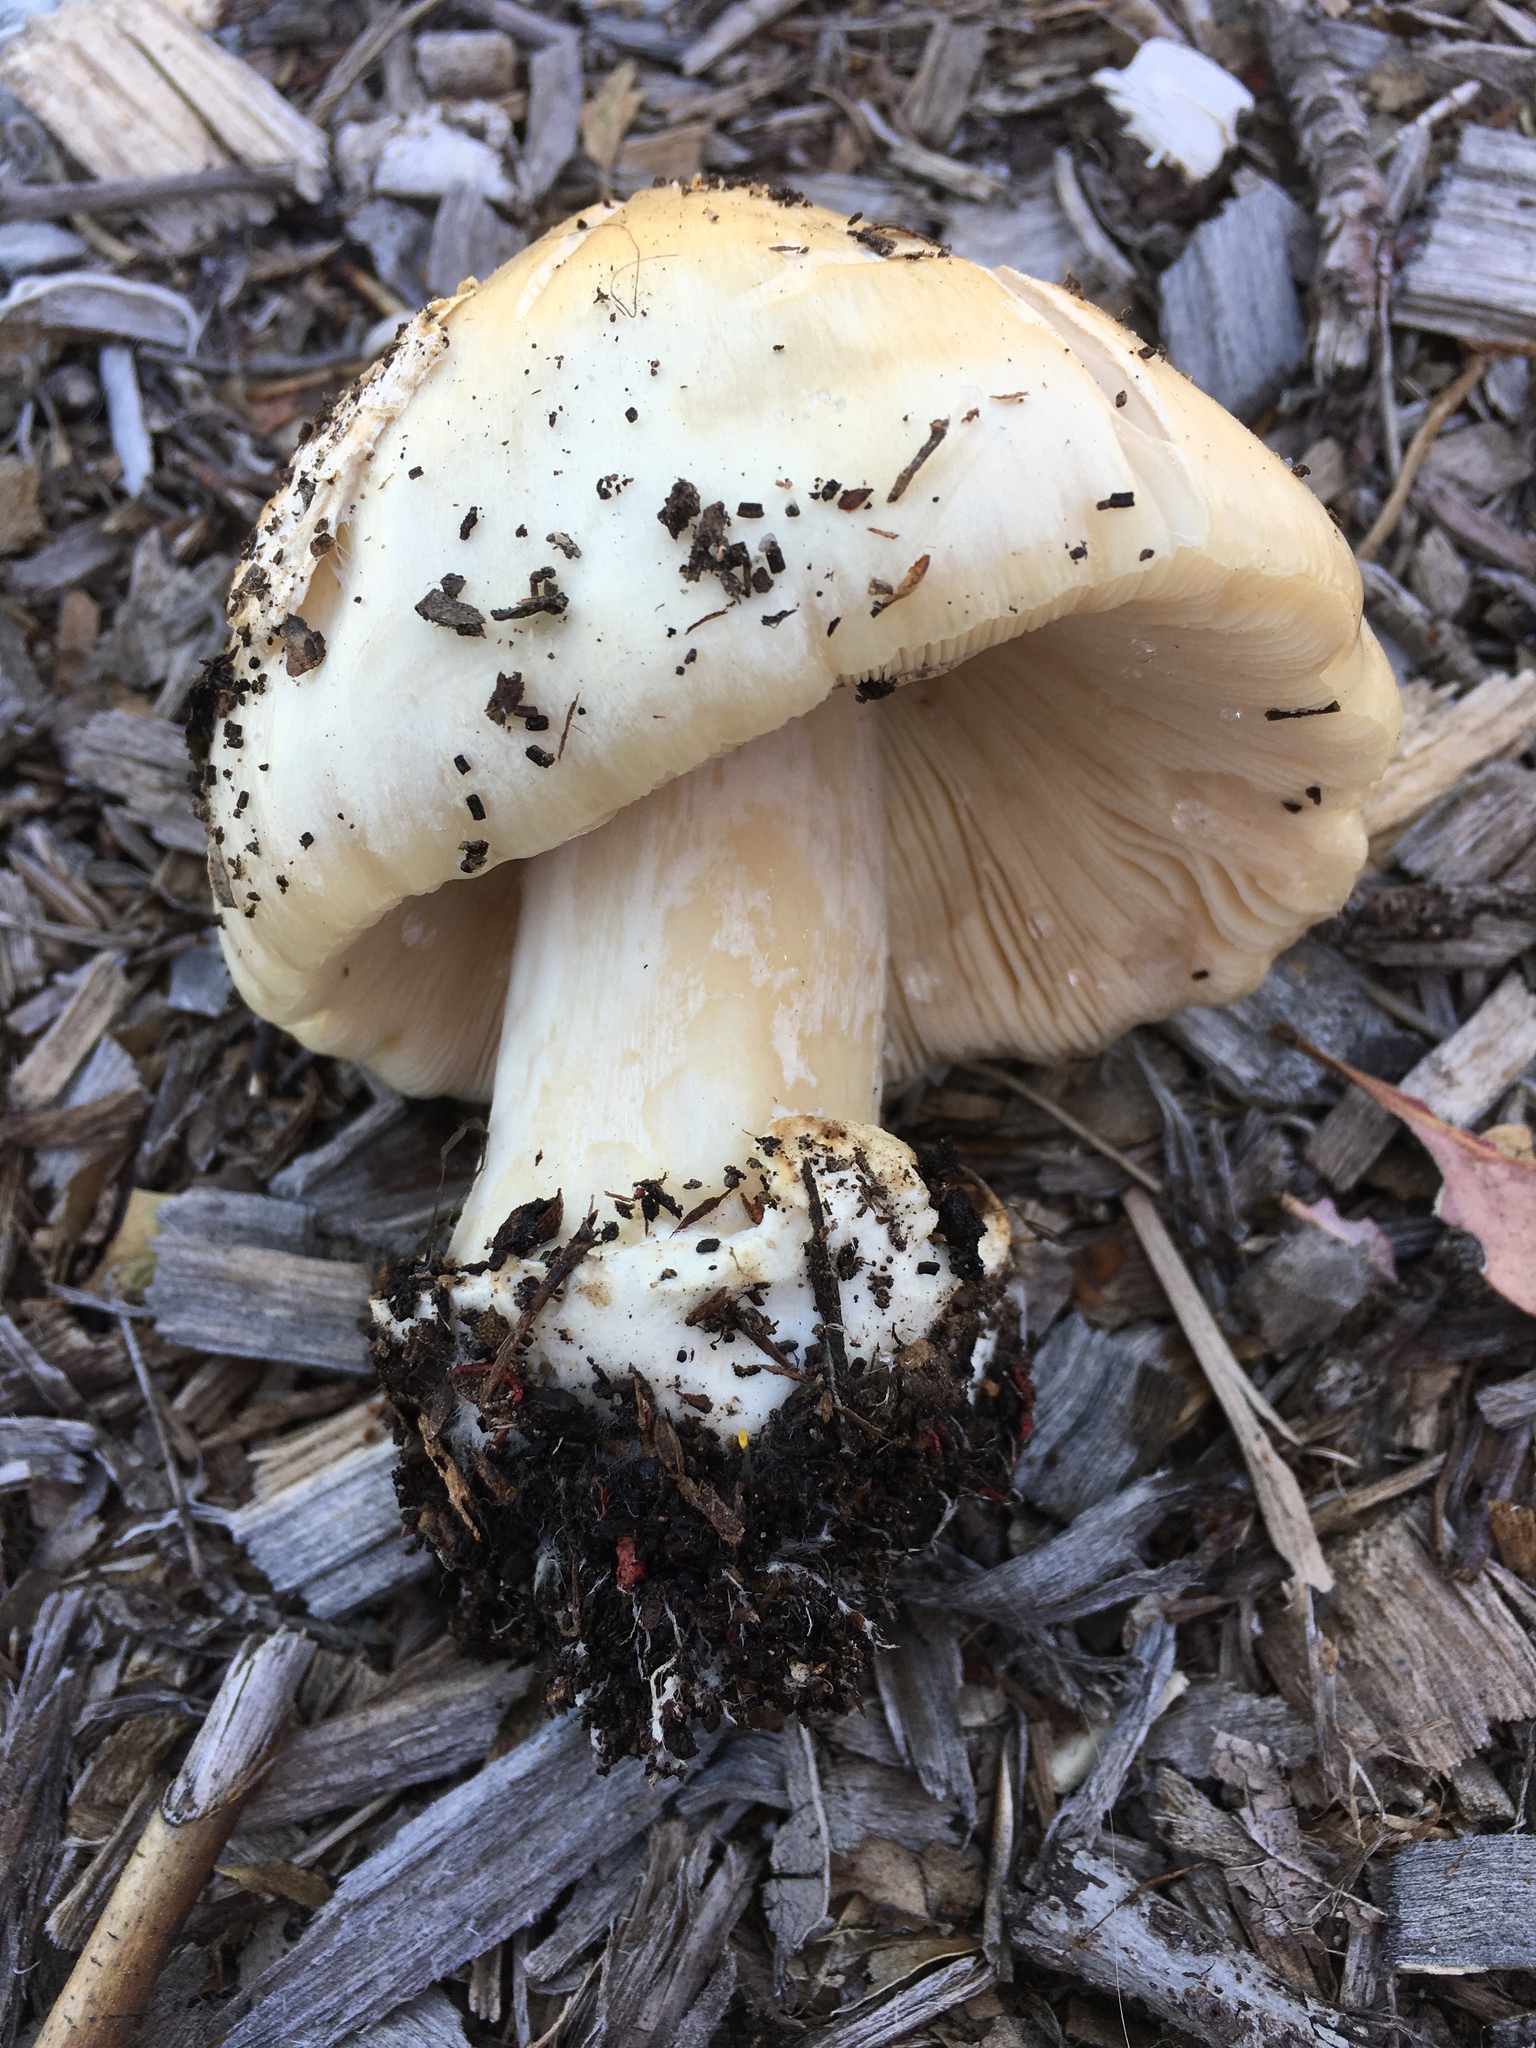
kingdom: Fungi
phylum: Basidiomycota
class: Agaricomycetes
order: Agaricales
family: Pluteaceae
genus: Volvopluteus
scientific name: Volvopluteus gloiocephalus
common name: Stubble rosegill
